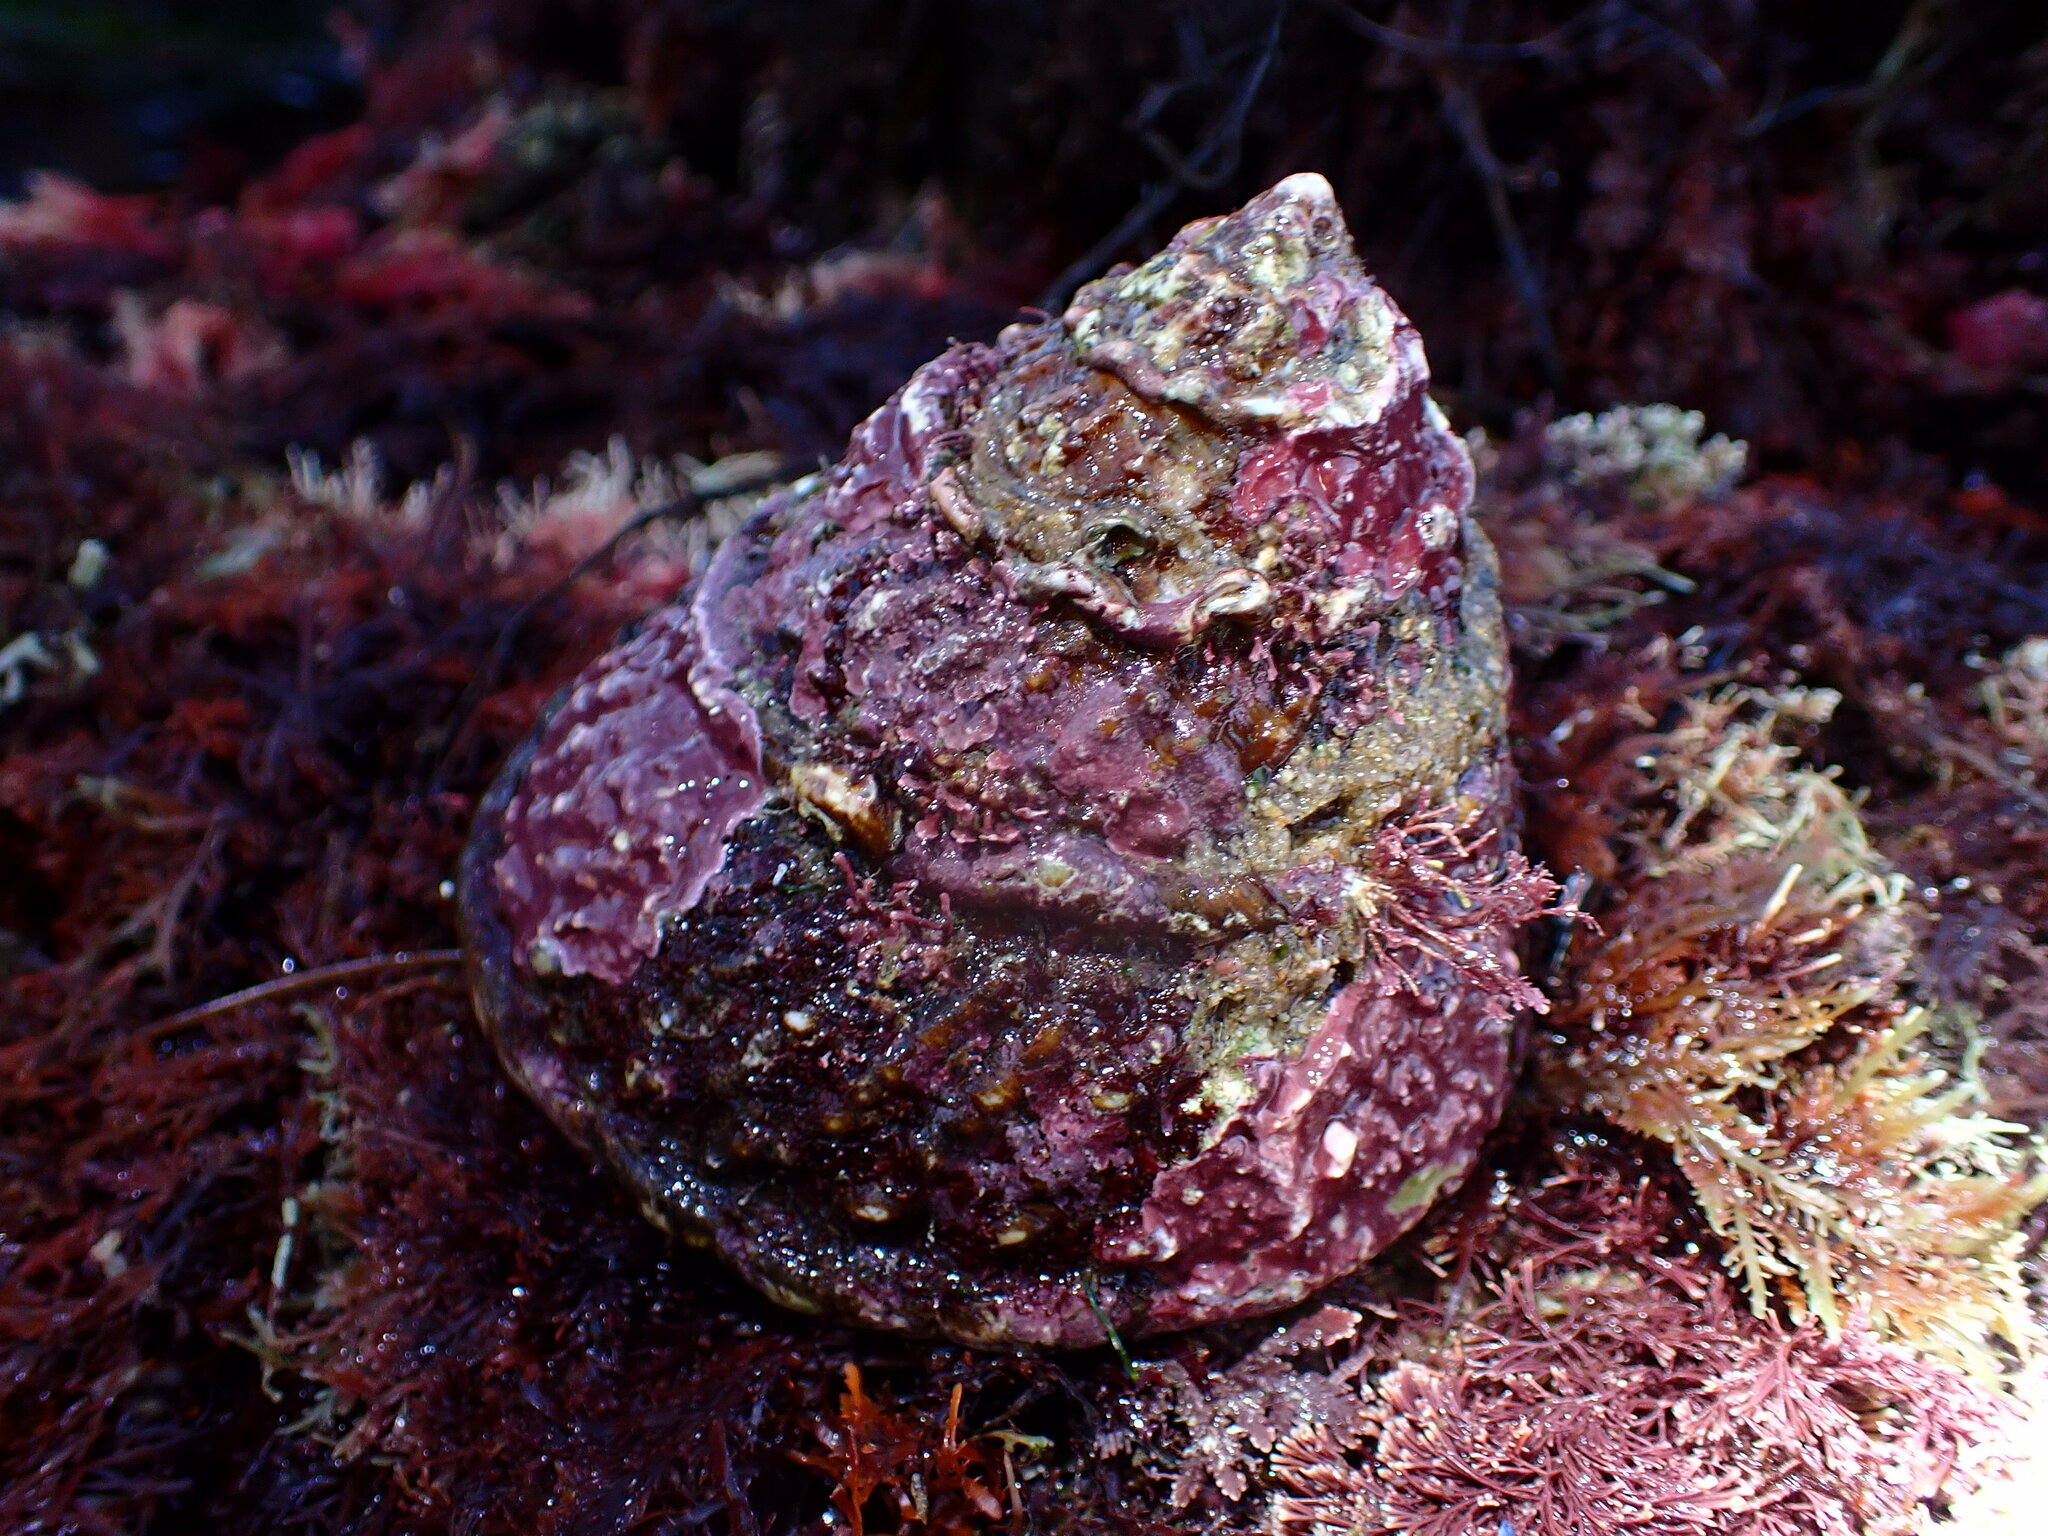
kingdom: Animalia
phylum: Mollusca
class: Gastropoda
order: Trochida
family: Turbinidae
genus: Megastraea
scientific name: Megastraea undosa
